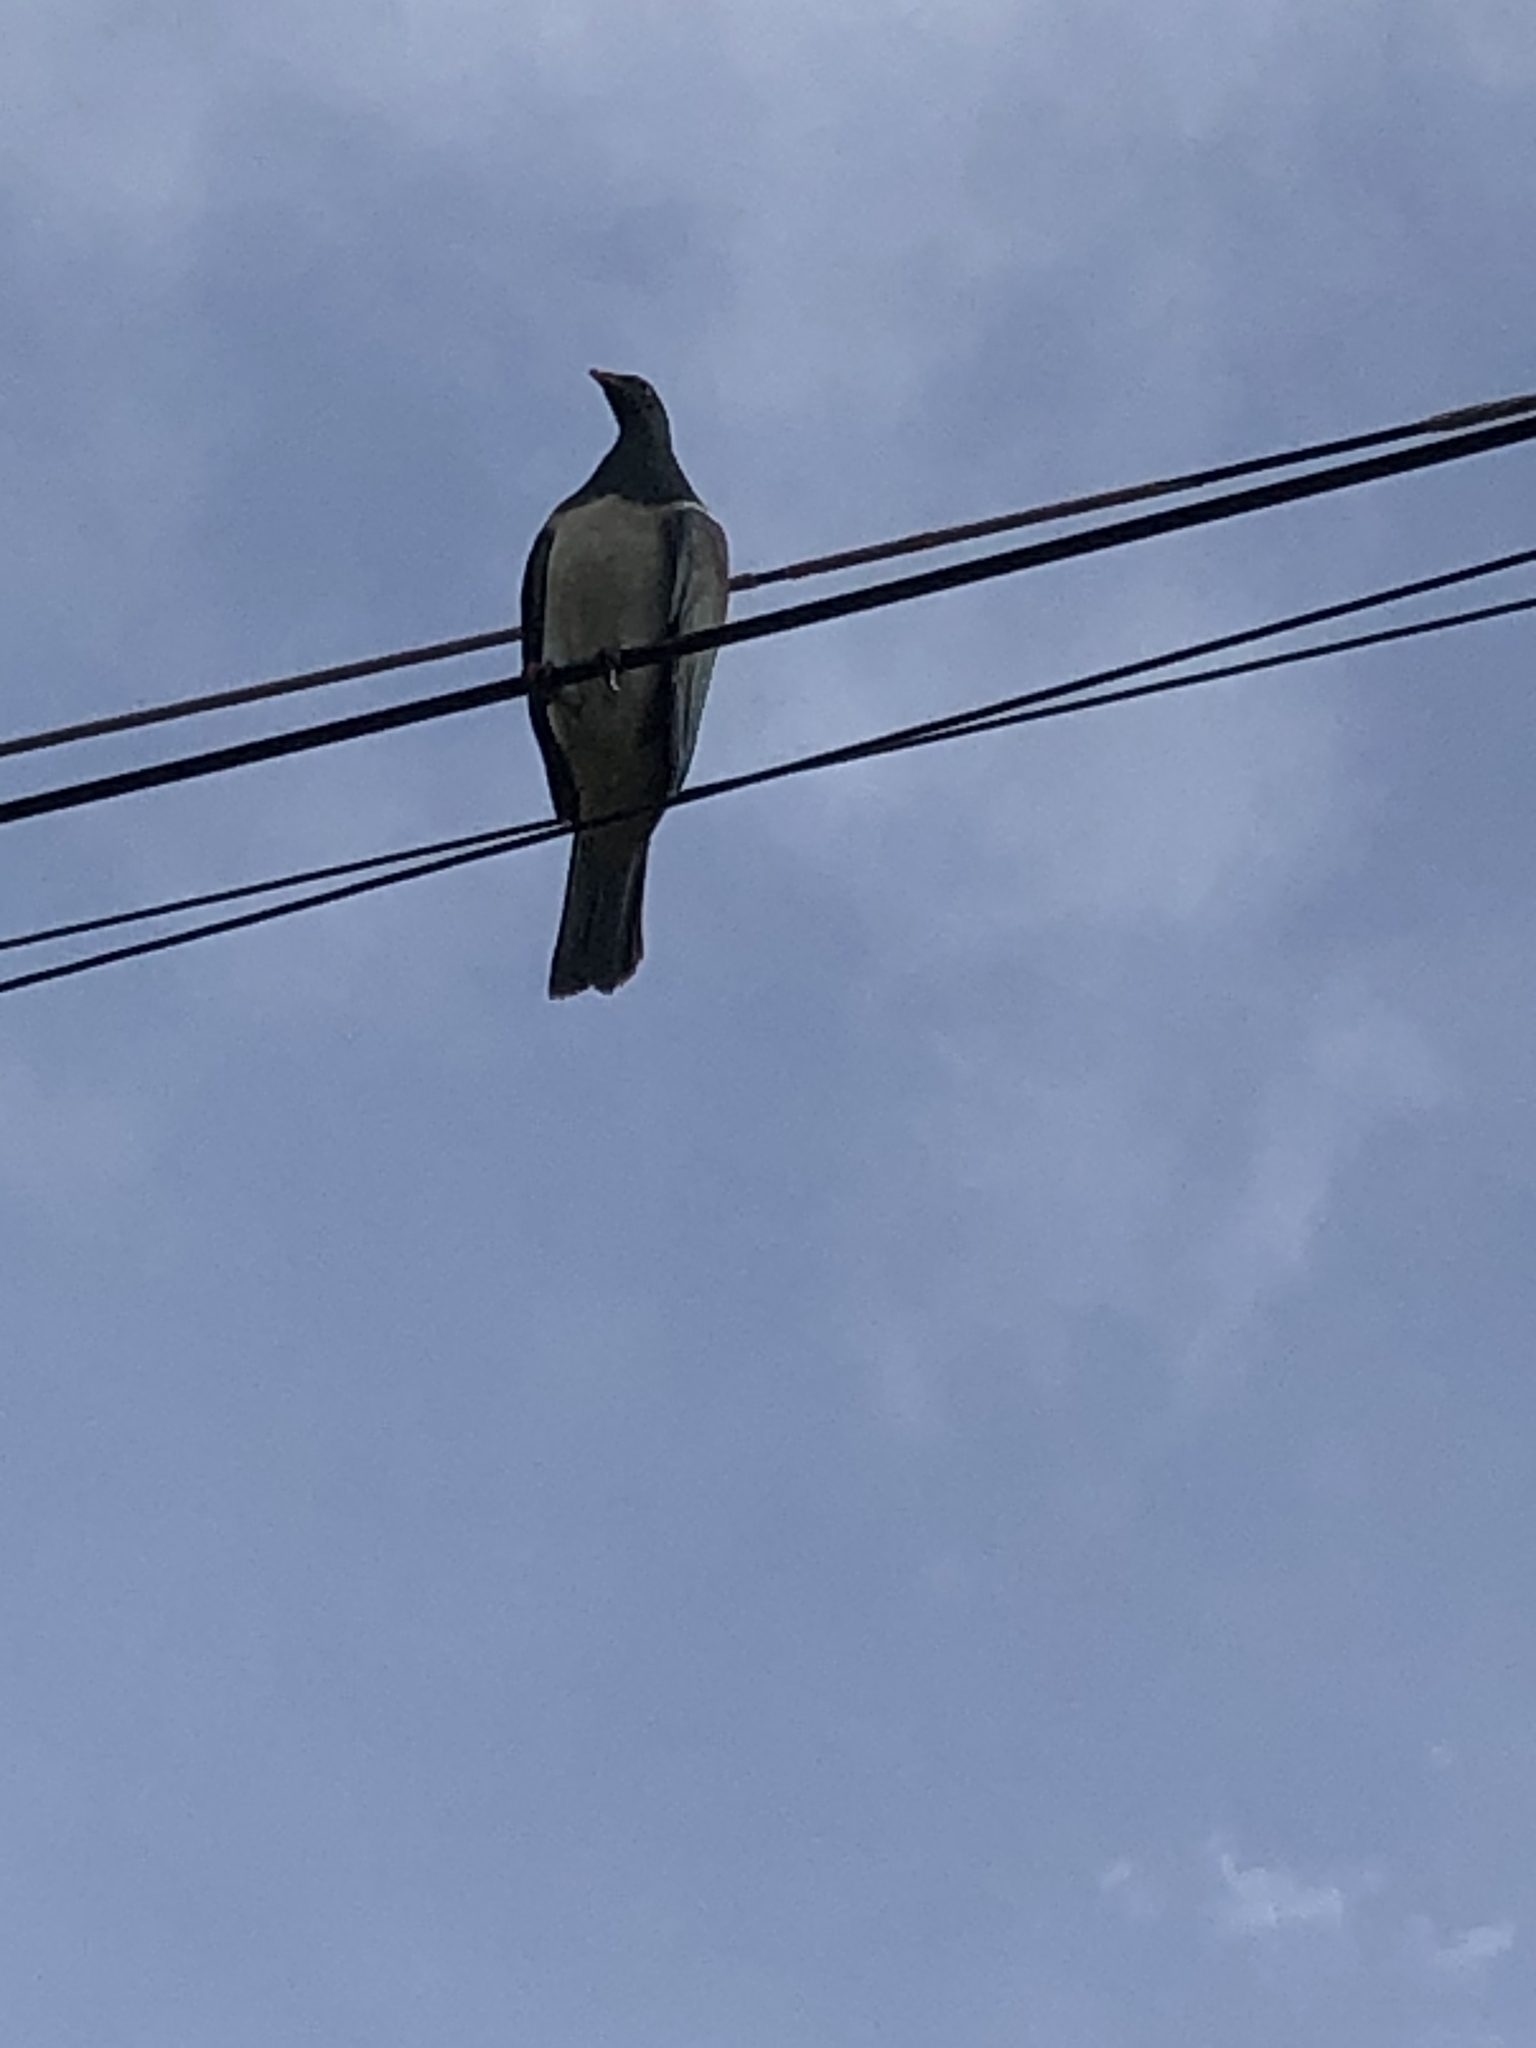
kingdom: Animalia
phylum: Chordata
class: Aves
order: Columbiformes
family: Columbidae
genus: Hemiphaga
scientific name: Hemiphaga novaeseelandiae
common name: New zealand pigeon
